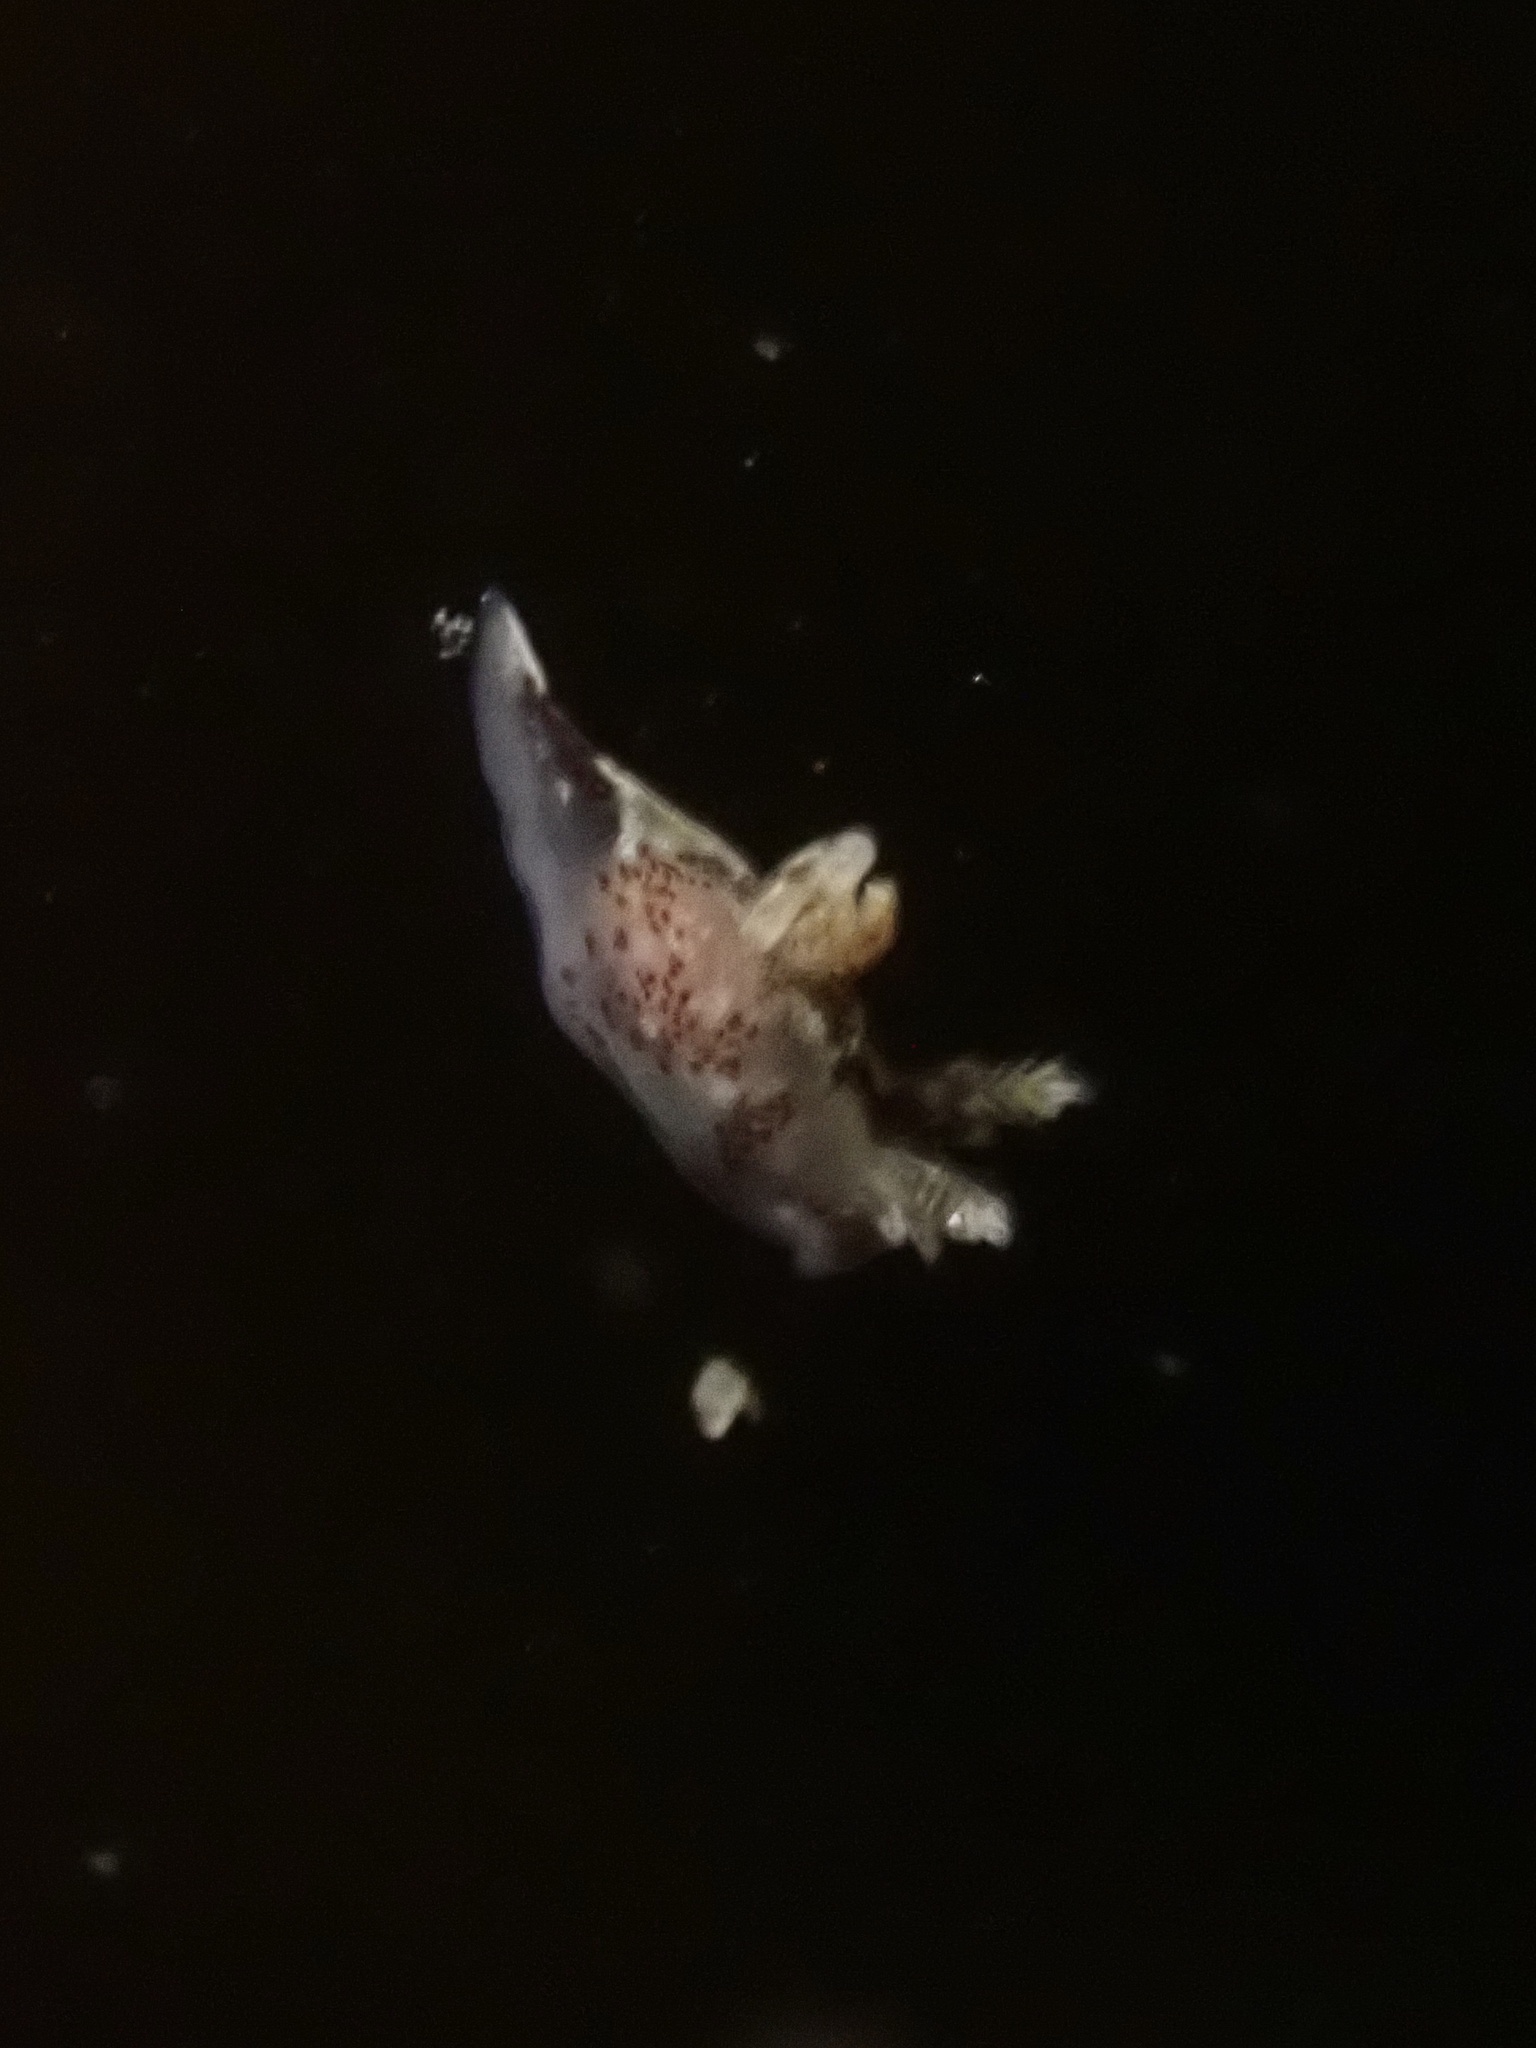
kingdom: Animalia
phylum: Mollusca
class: Gastropoda
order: Nudibranchia
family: Goniodorididae
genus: Ancula
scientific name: Ancula lentiginosa
